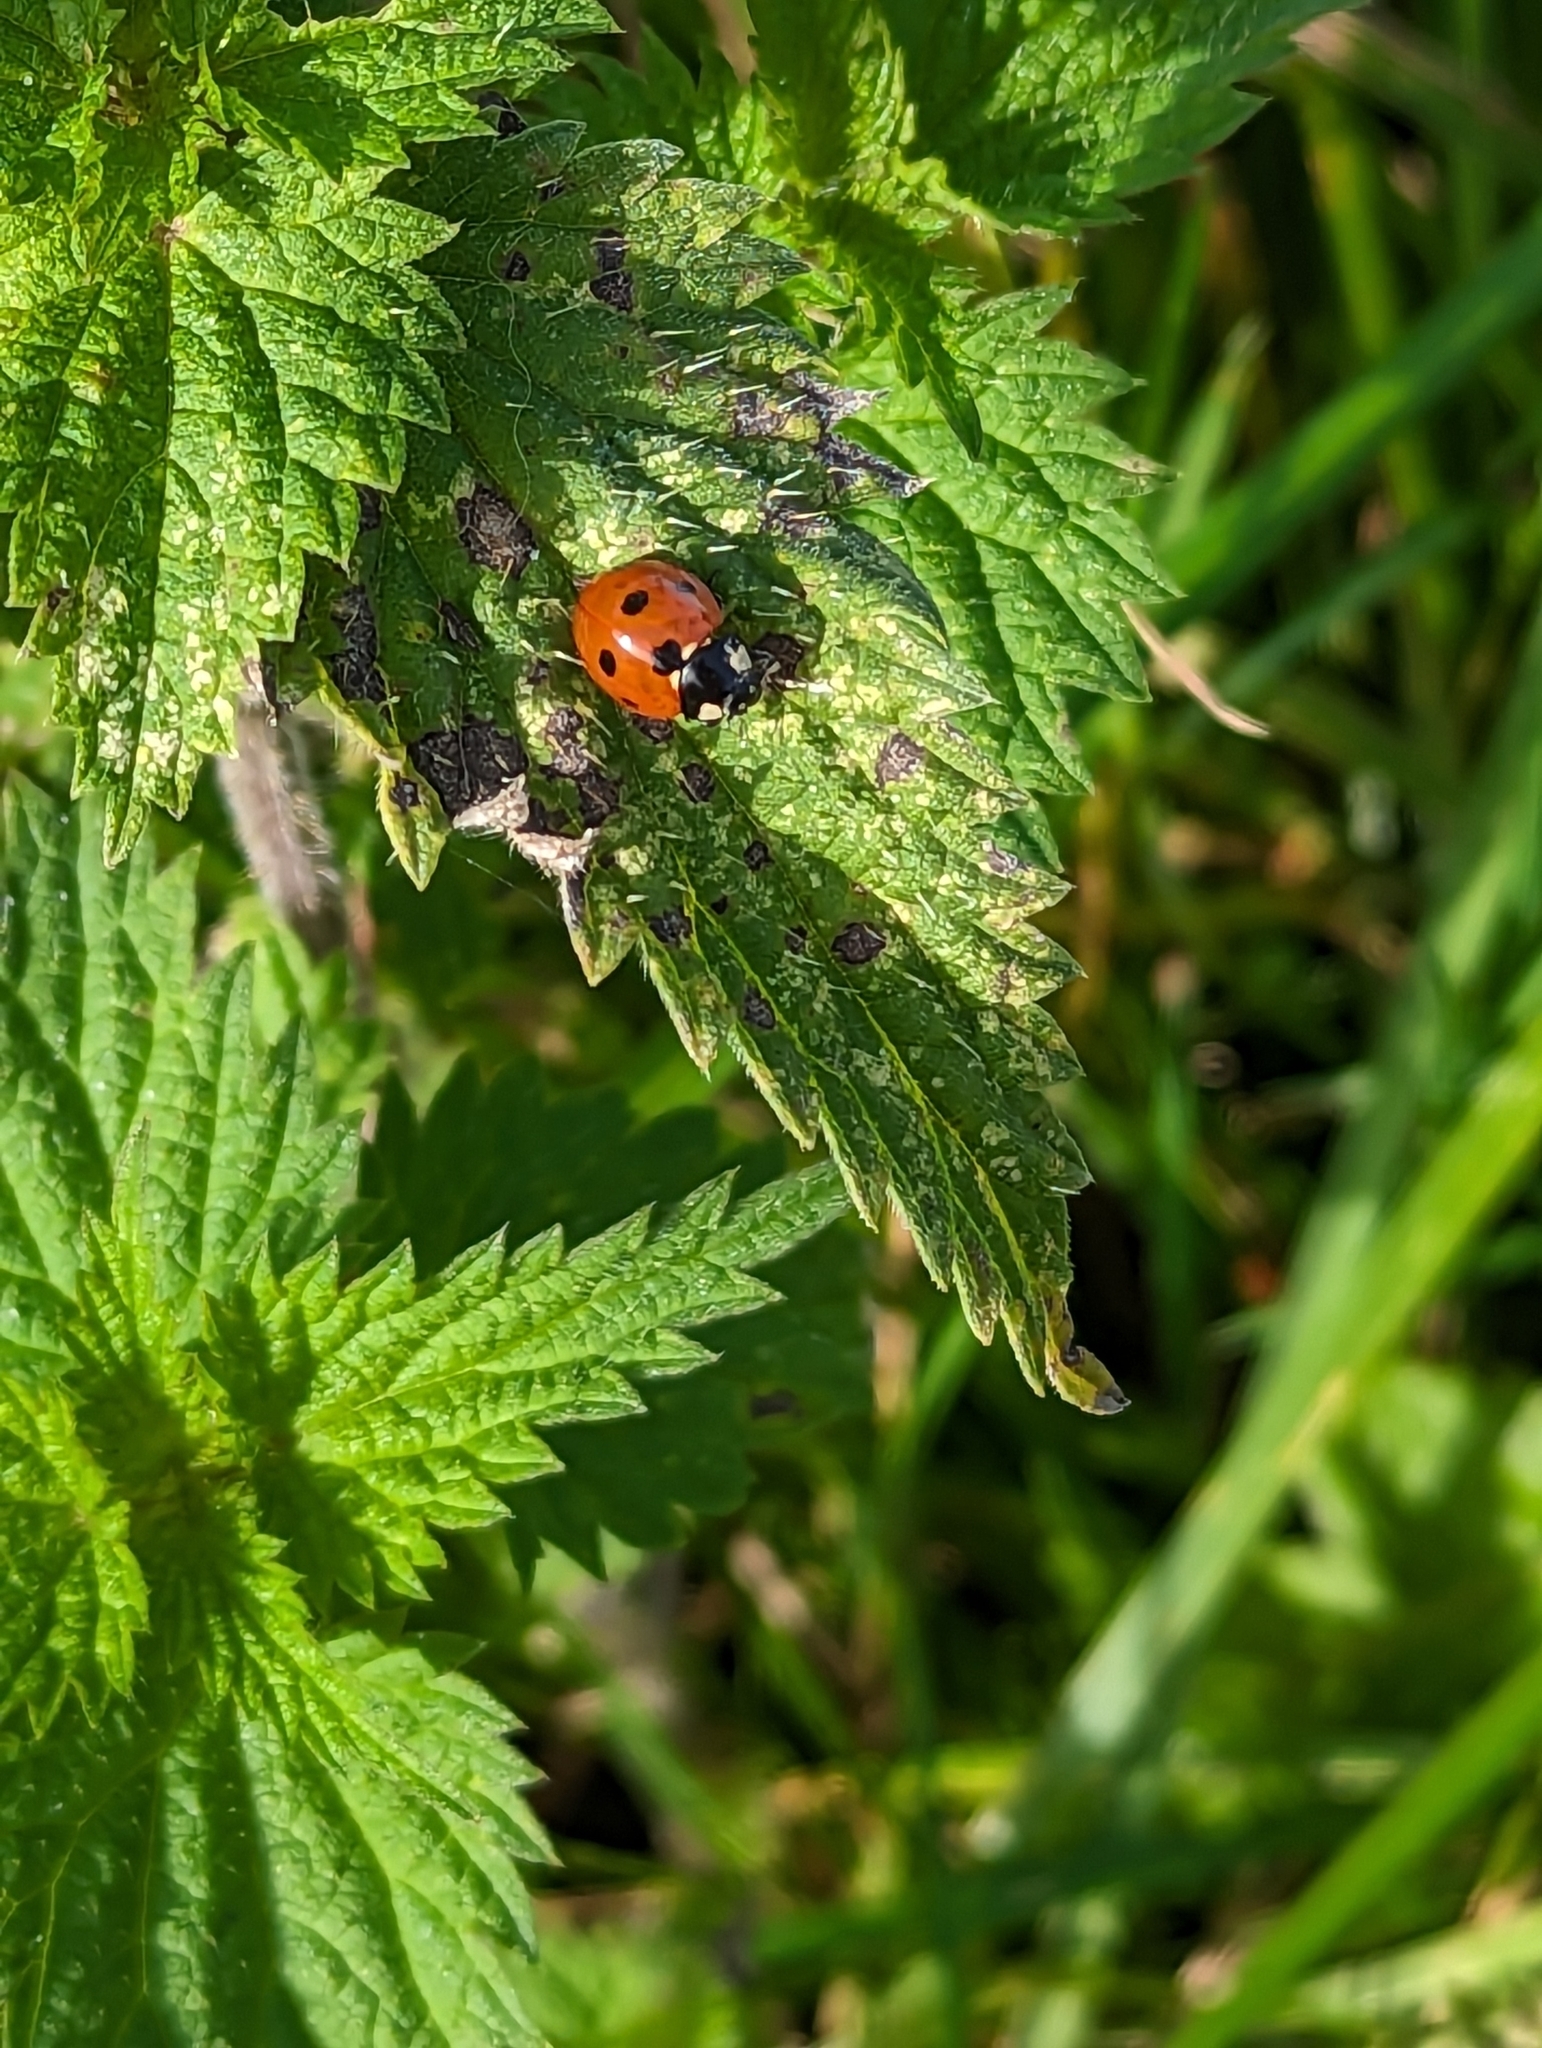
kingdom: Animalia
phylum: Arthropoda
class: Insecta
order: Coleoptera
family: Coccinellidae
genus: Coccinella
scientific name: Coccinella septempunctata
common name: Sevenspotted lady beetle
